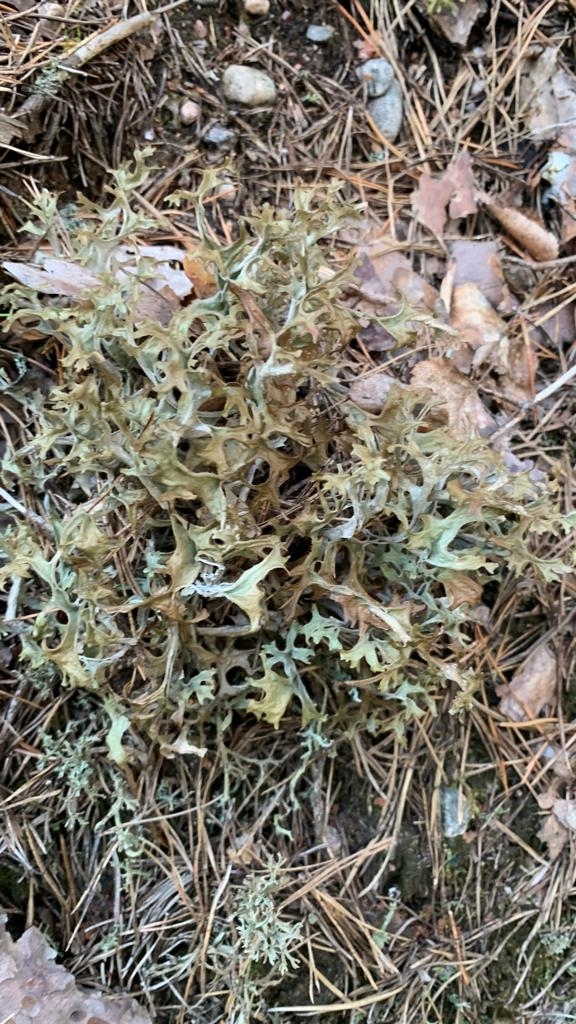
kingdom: Fungi
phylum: Ascomycota
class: Lecanoromycetes
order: Lecanorales
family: Parmeliaceae
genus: Cetraria
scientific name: Cetraria islandica
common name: Iceland lichen
